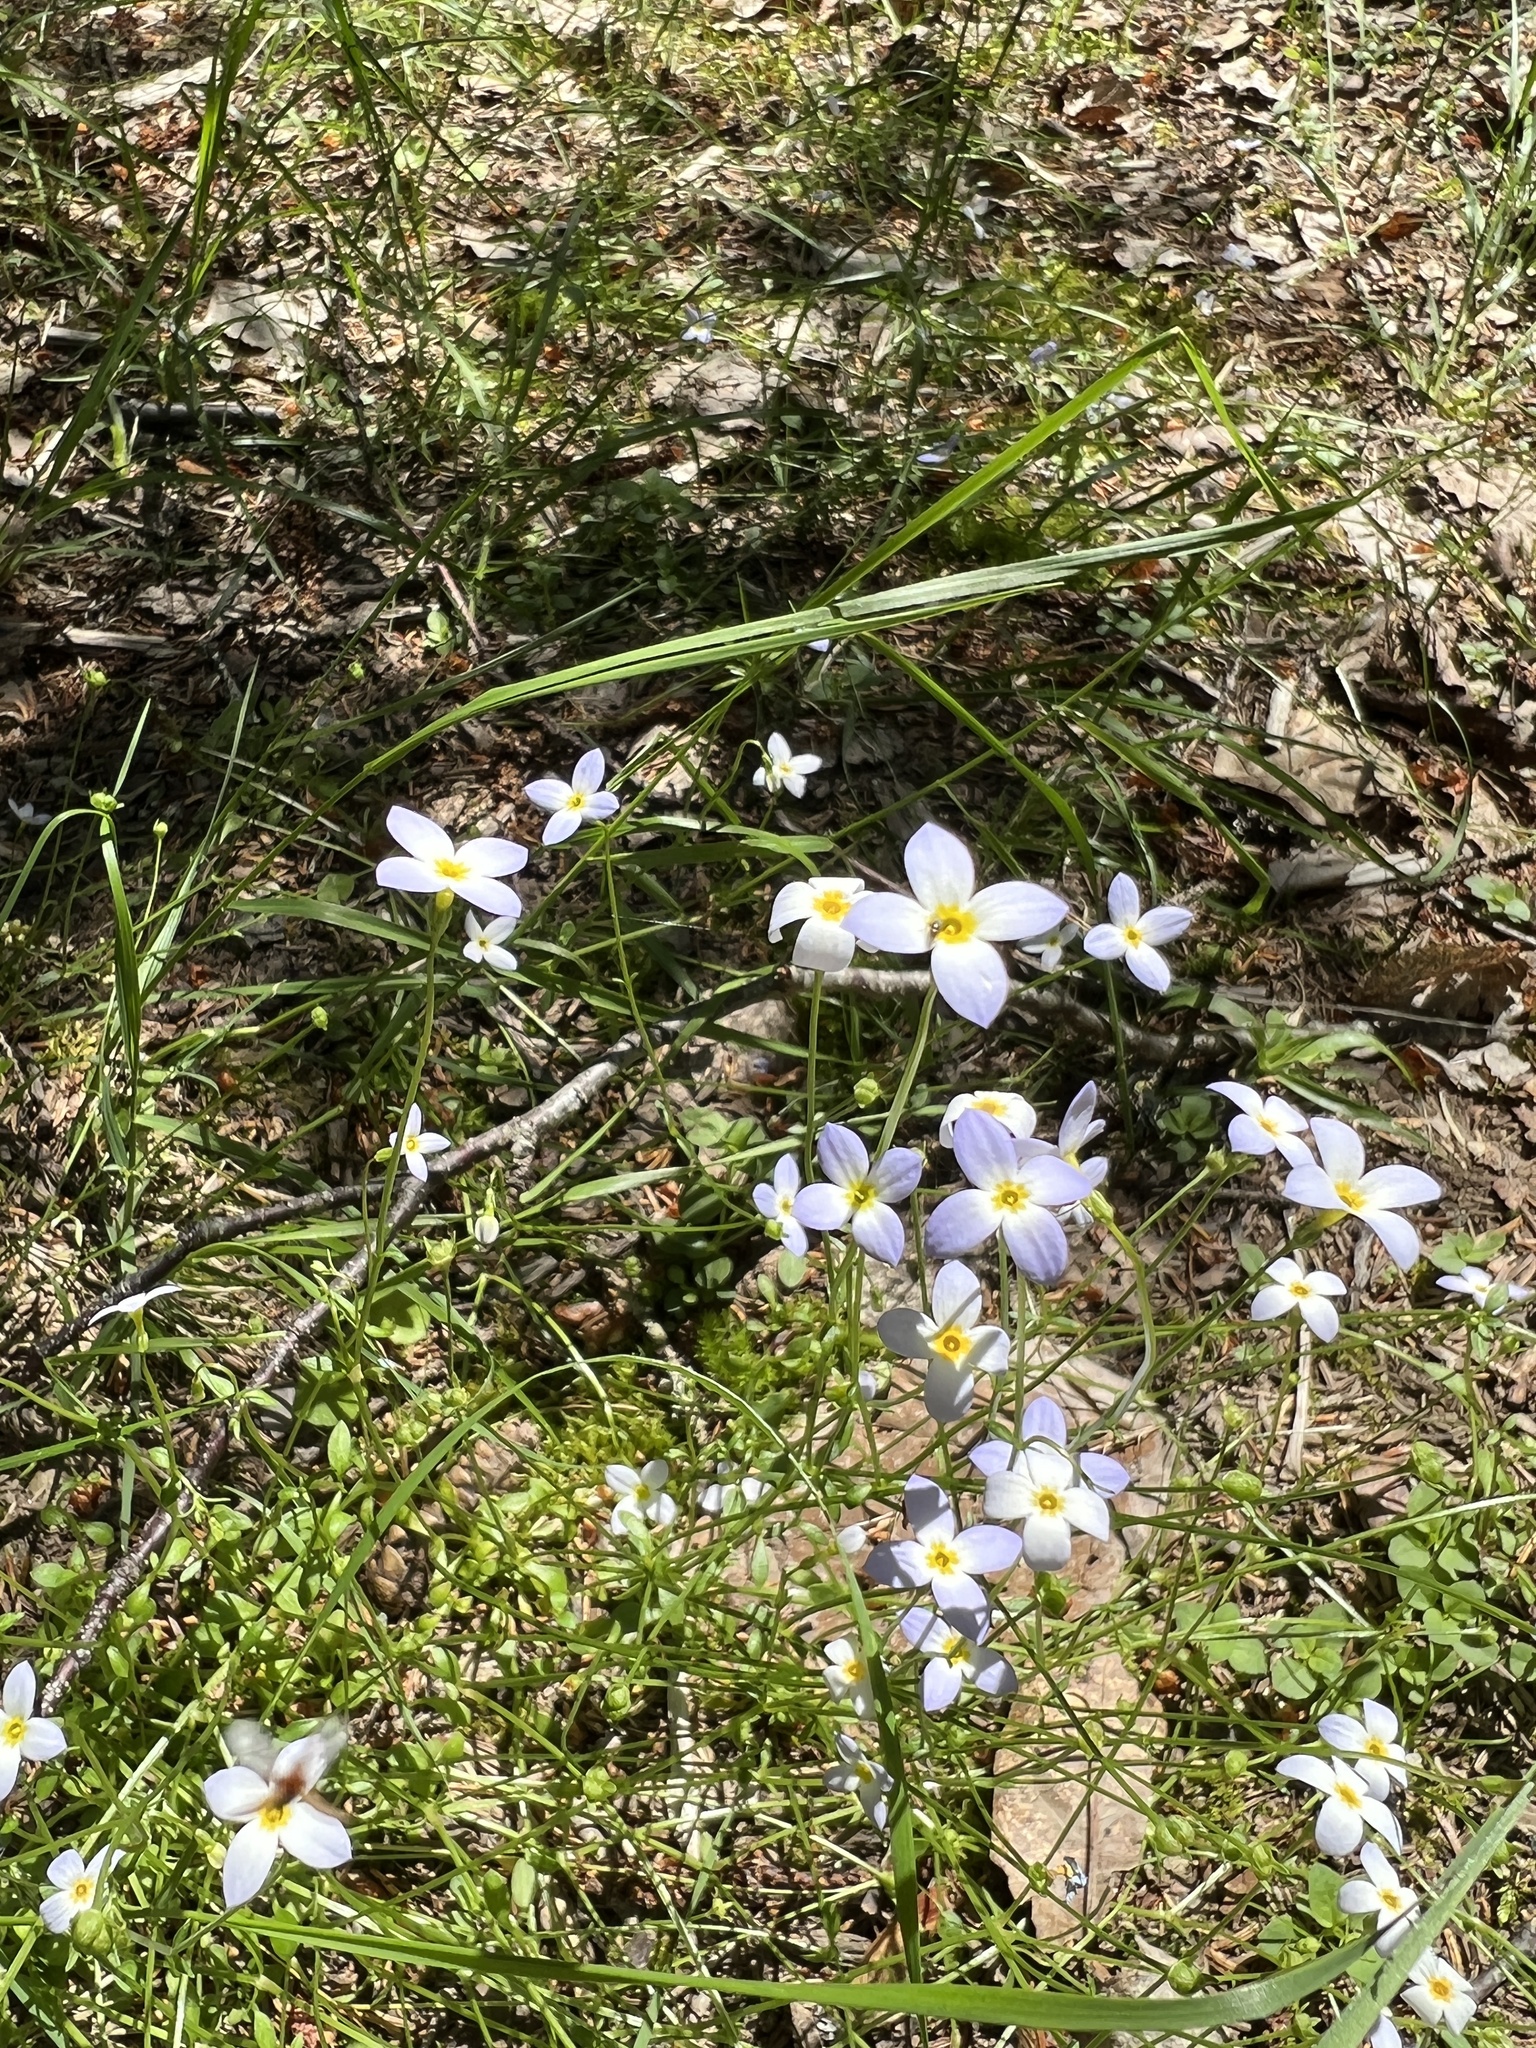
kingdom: Plantae
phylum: Tracheophyta
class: Magnoliopsida
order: Gentianales
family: Rubiaceae
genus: Houstonia
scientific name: Houstonia caerulea
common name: Bluets
